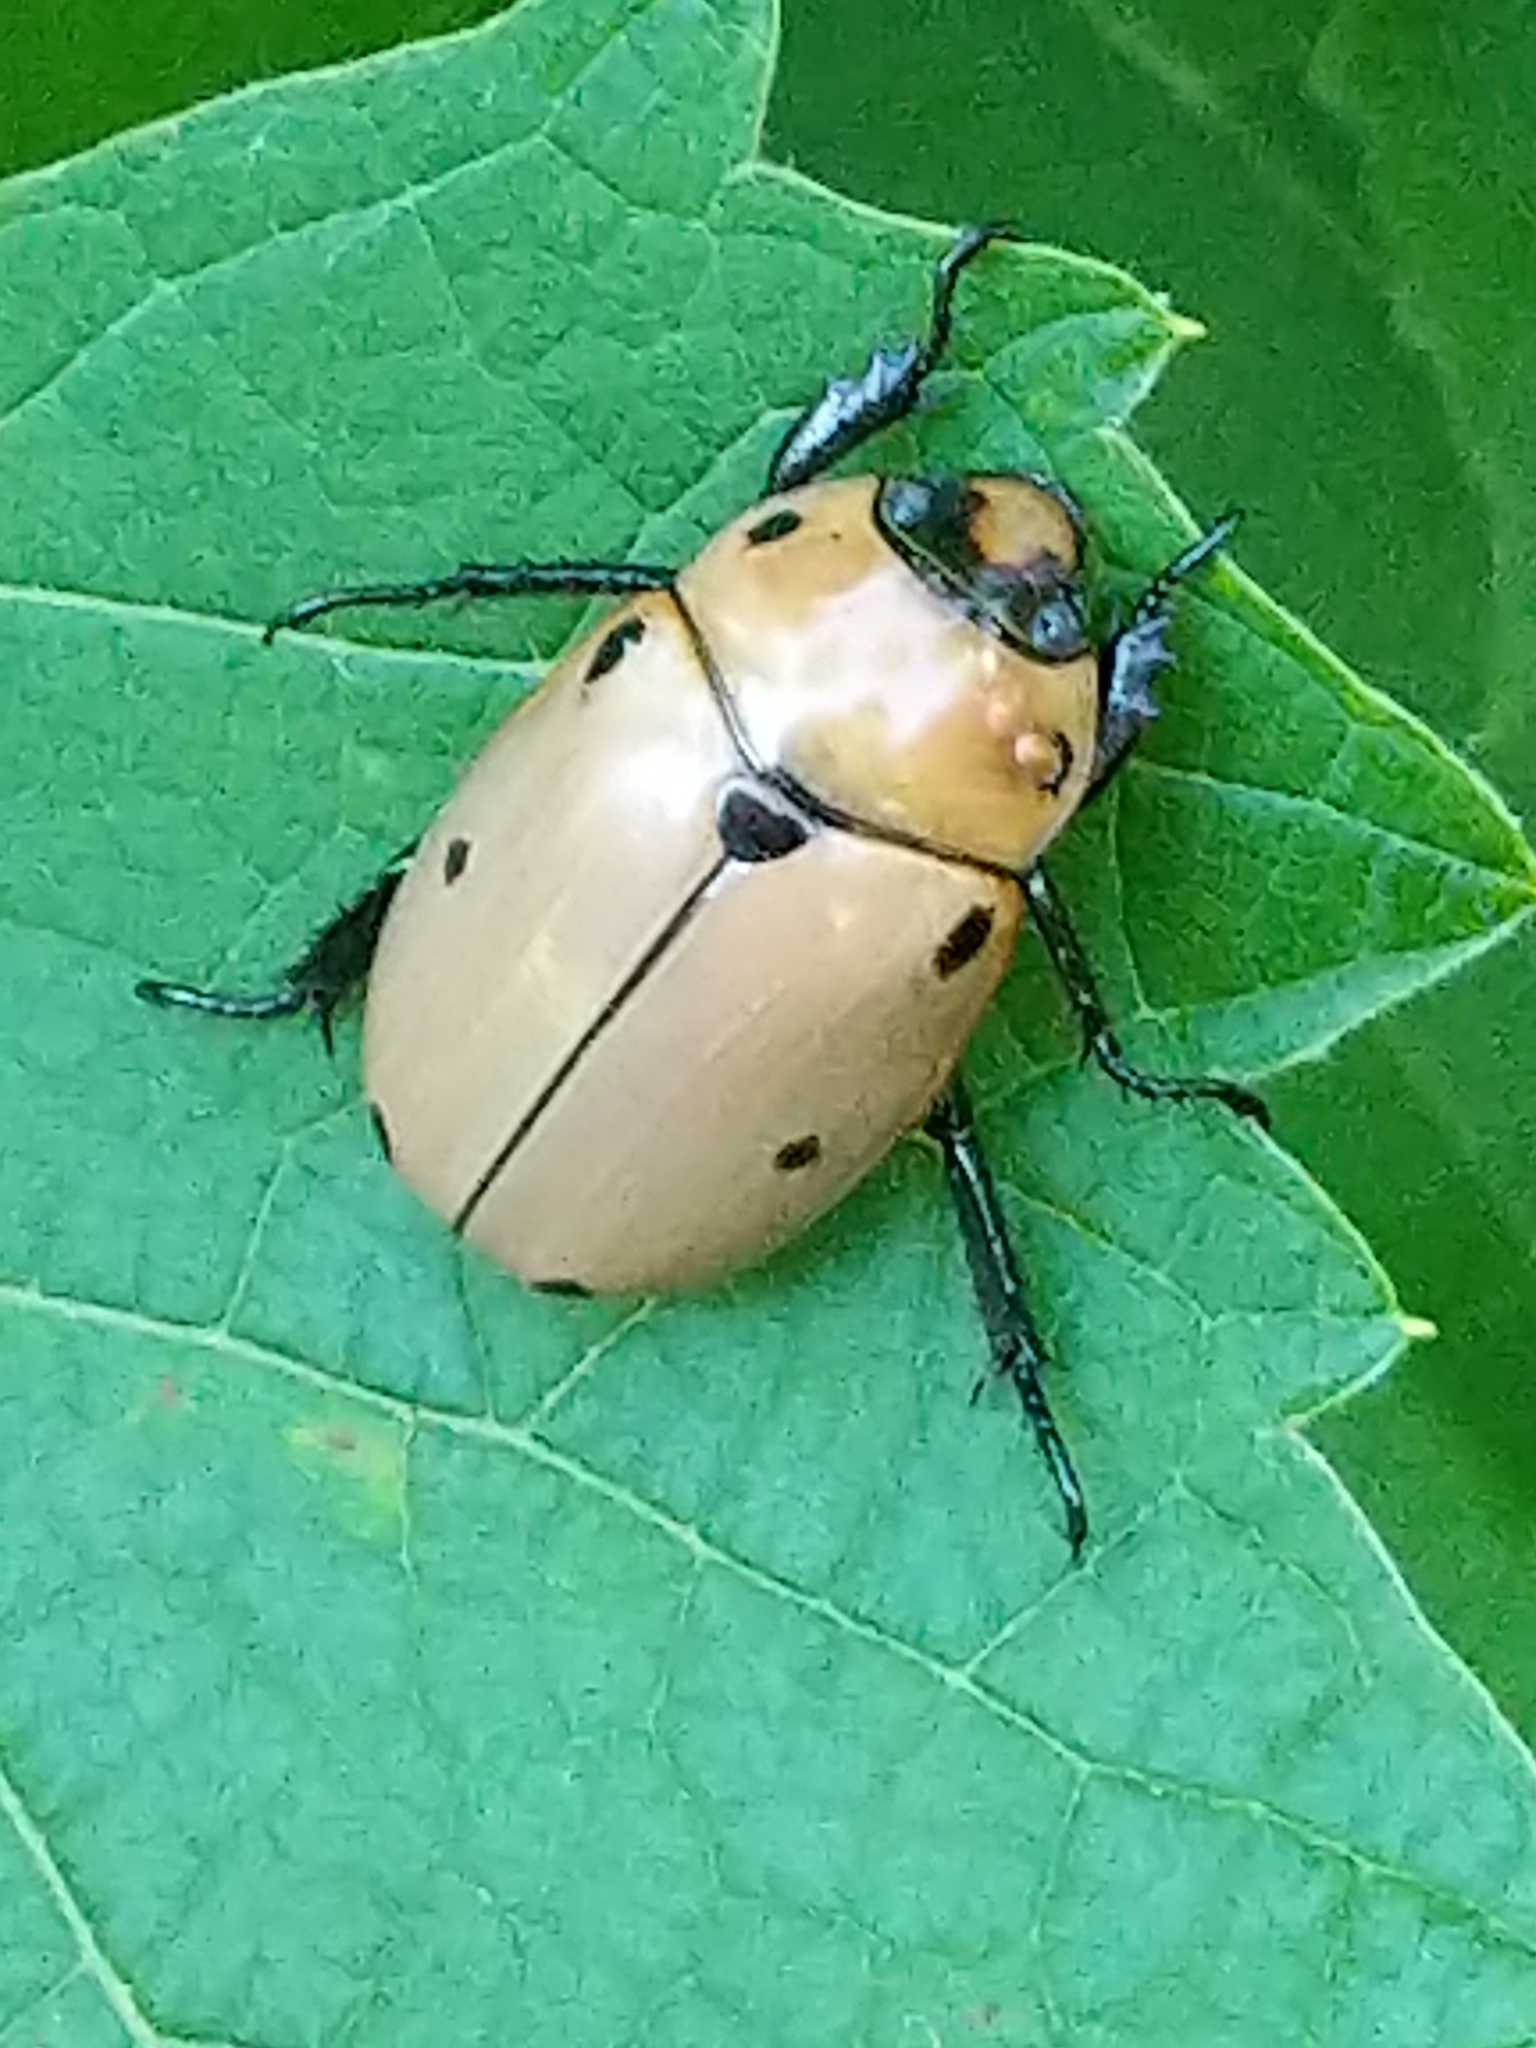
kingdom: Animalia
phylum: Arthropoda
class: Insecta
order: Coleoptera
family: Scarabaeidae
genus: Pelidnota
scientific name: Pelidnota punctata
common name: Grapevine beetle
